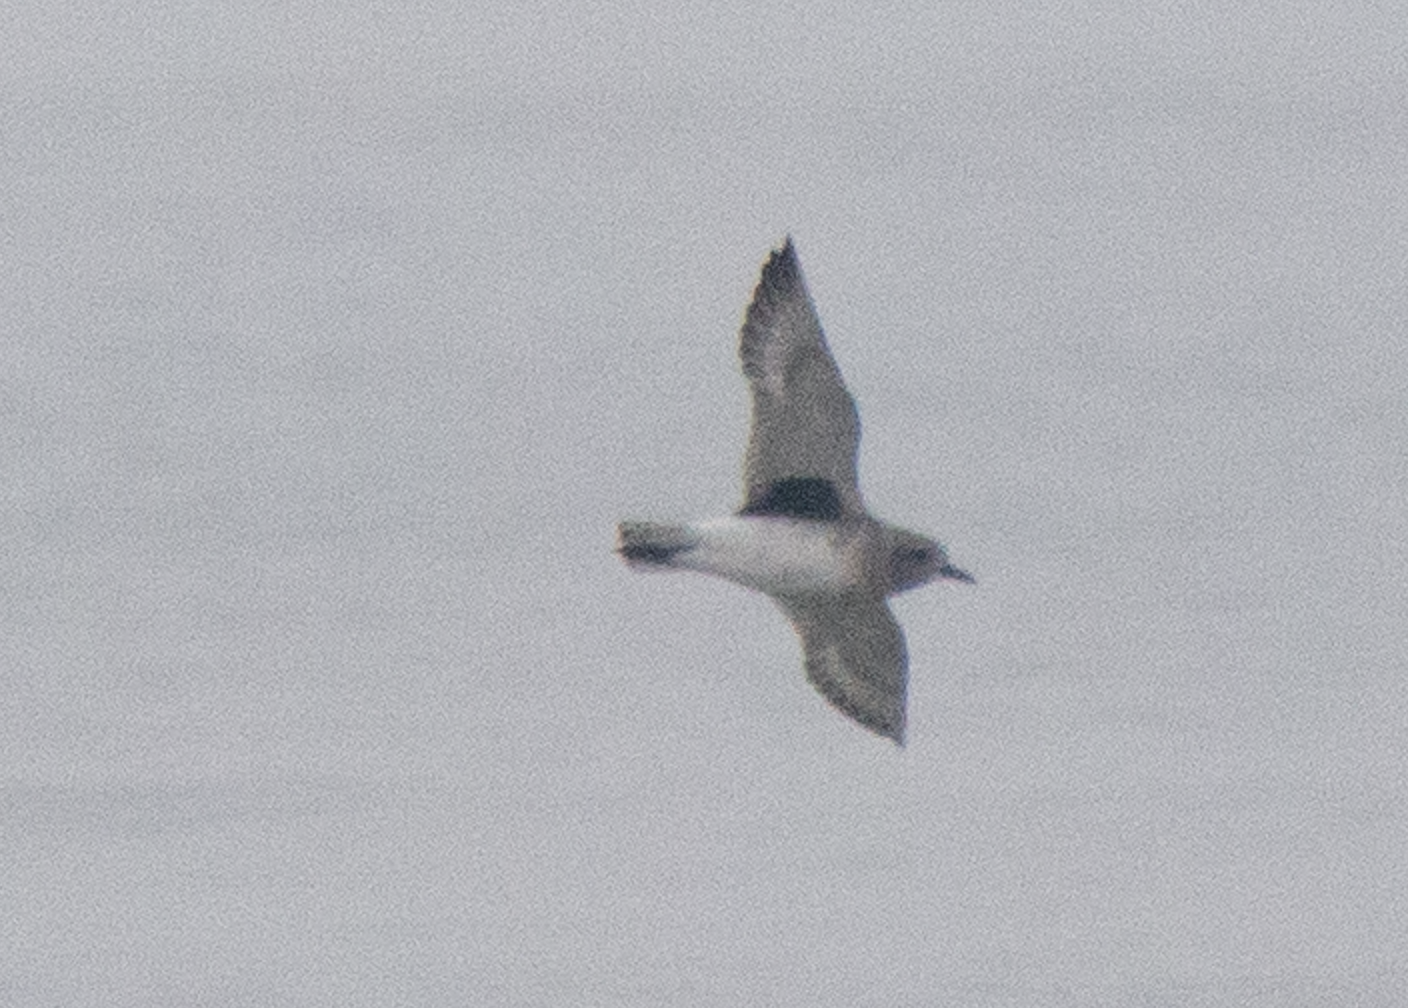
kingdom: Animalia
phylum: Chordata
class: Aves
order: Charadriiformes
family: Charadriidae
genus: Pluvialis
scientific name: Pluvialis squatarola
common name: Grey plover
